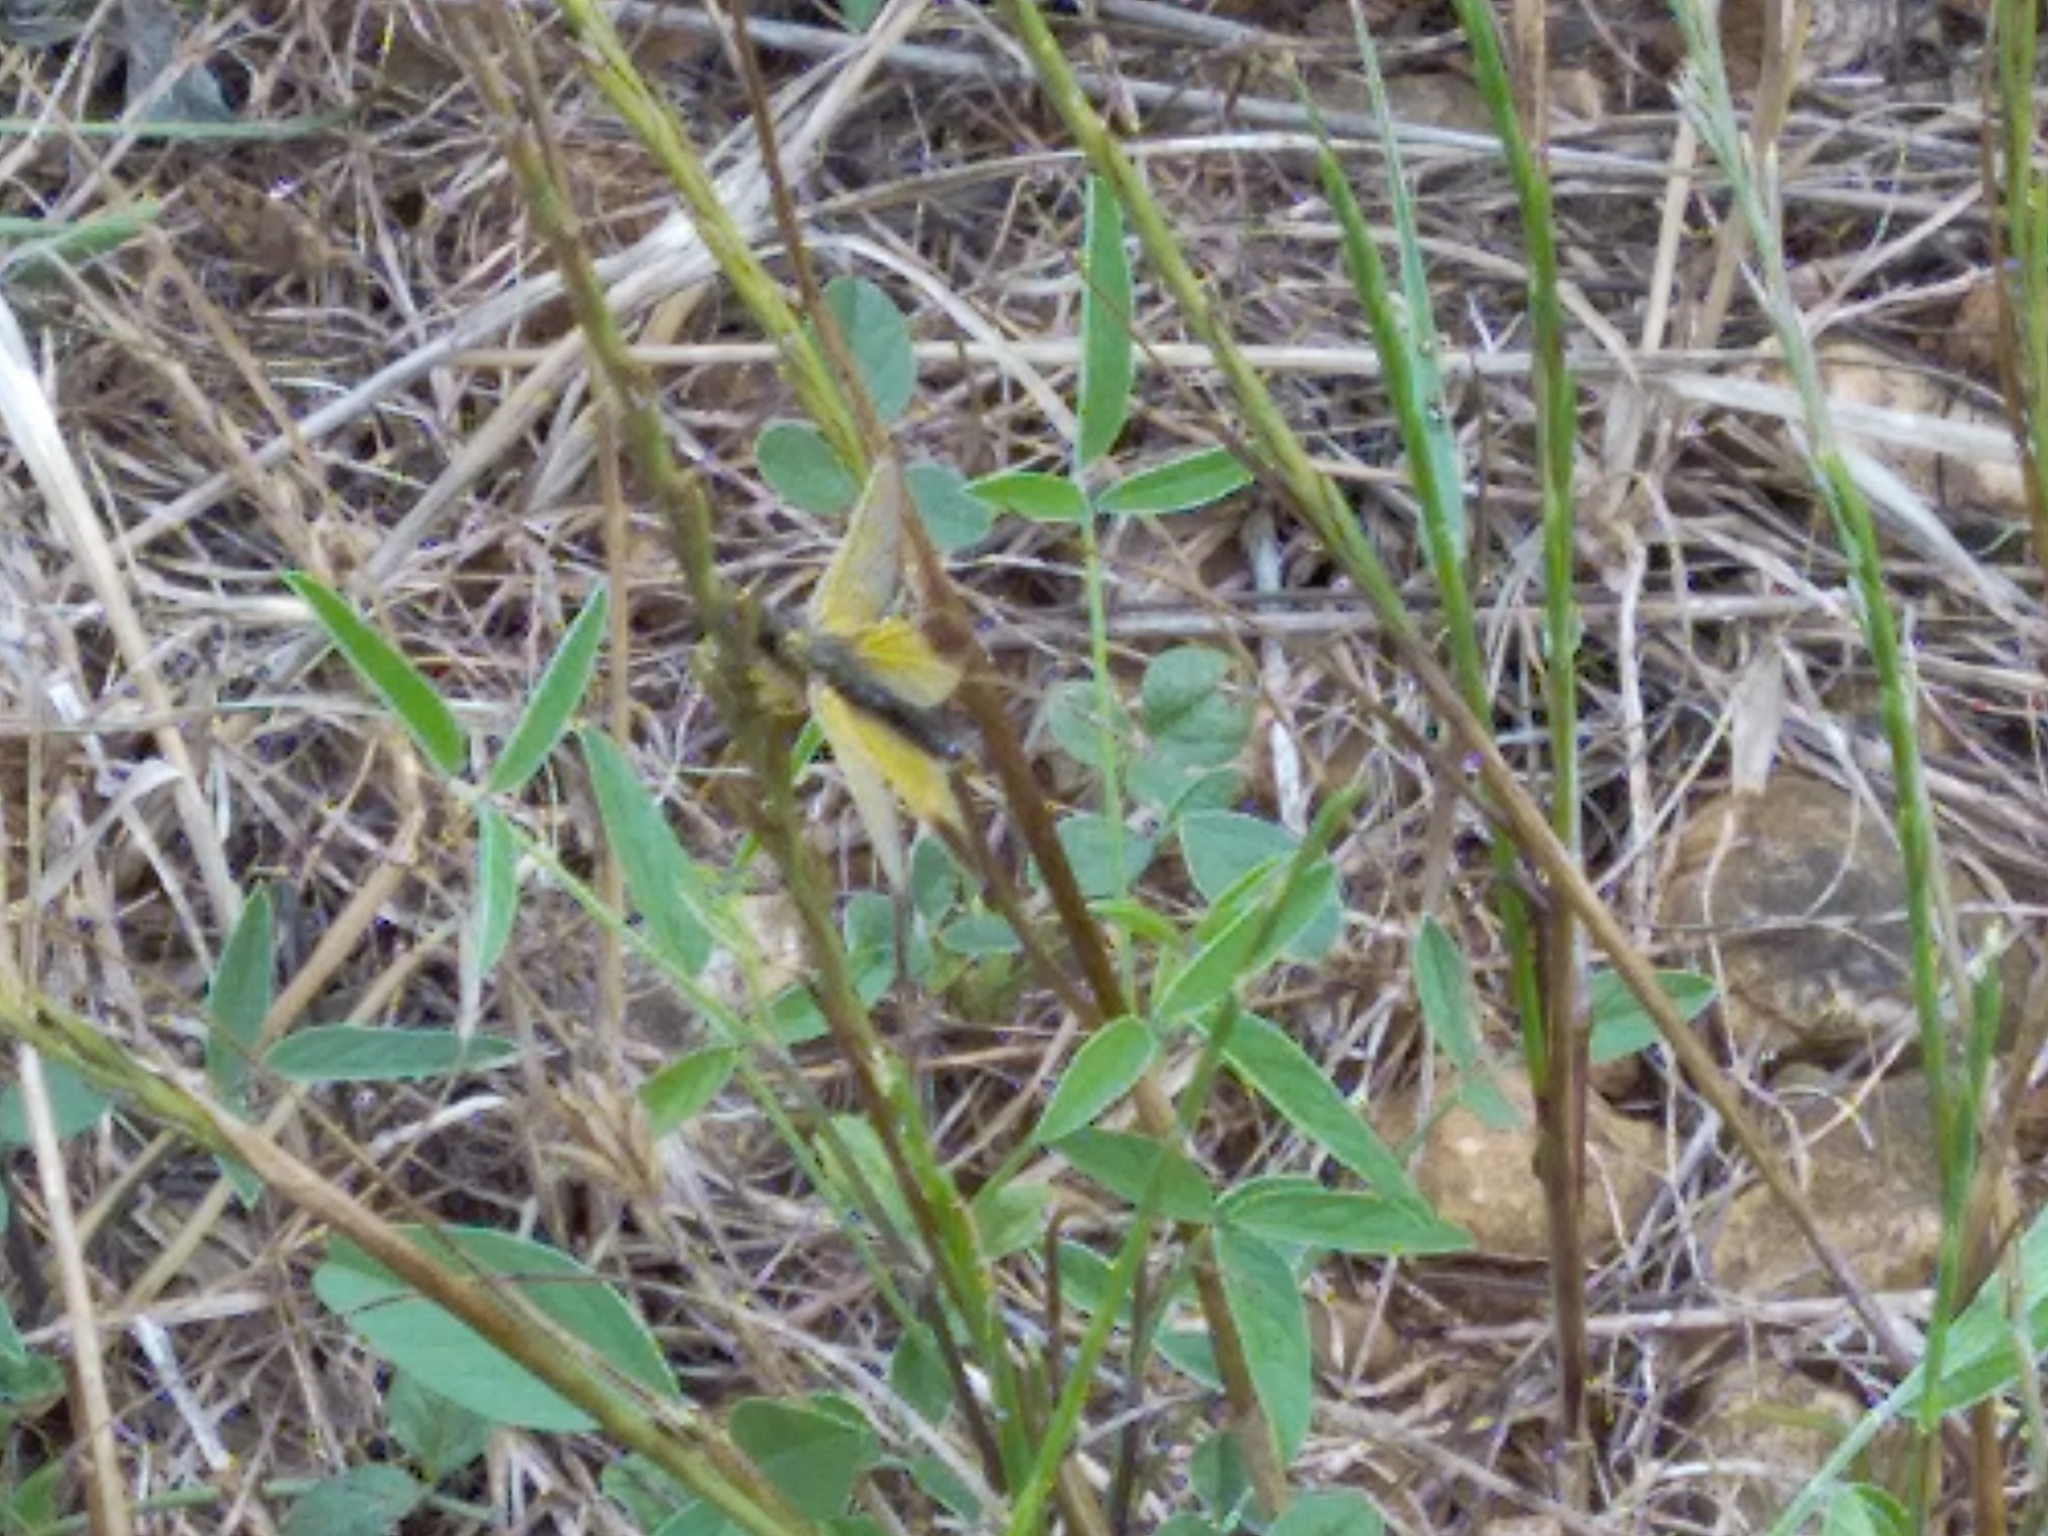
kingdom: Animalia
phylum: Arthropoda
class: Insecta
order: Neuroptera
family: Ascalaphidae
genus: Libelloides
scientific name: Libelloides ictericus
